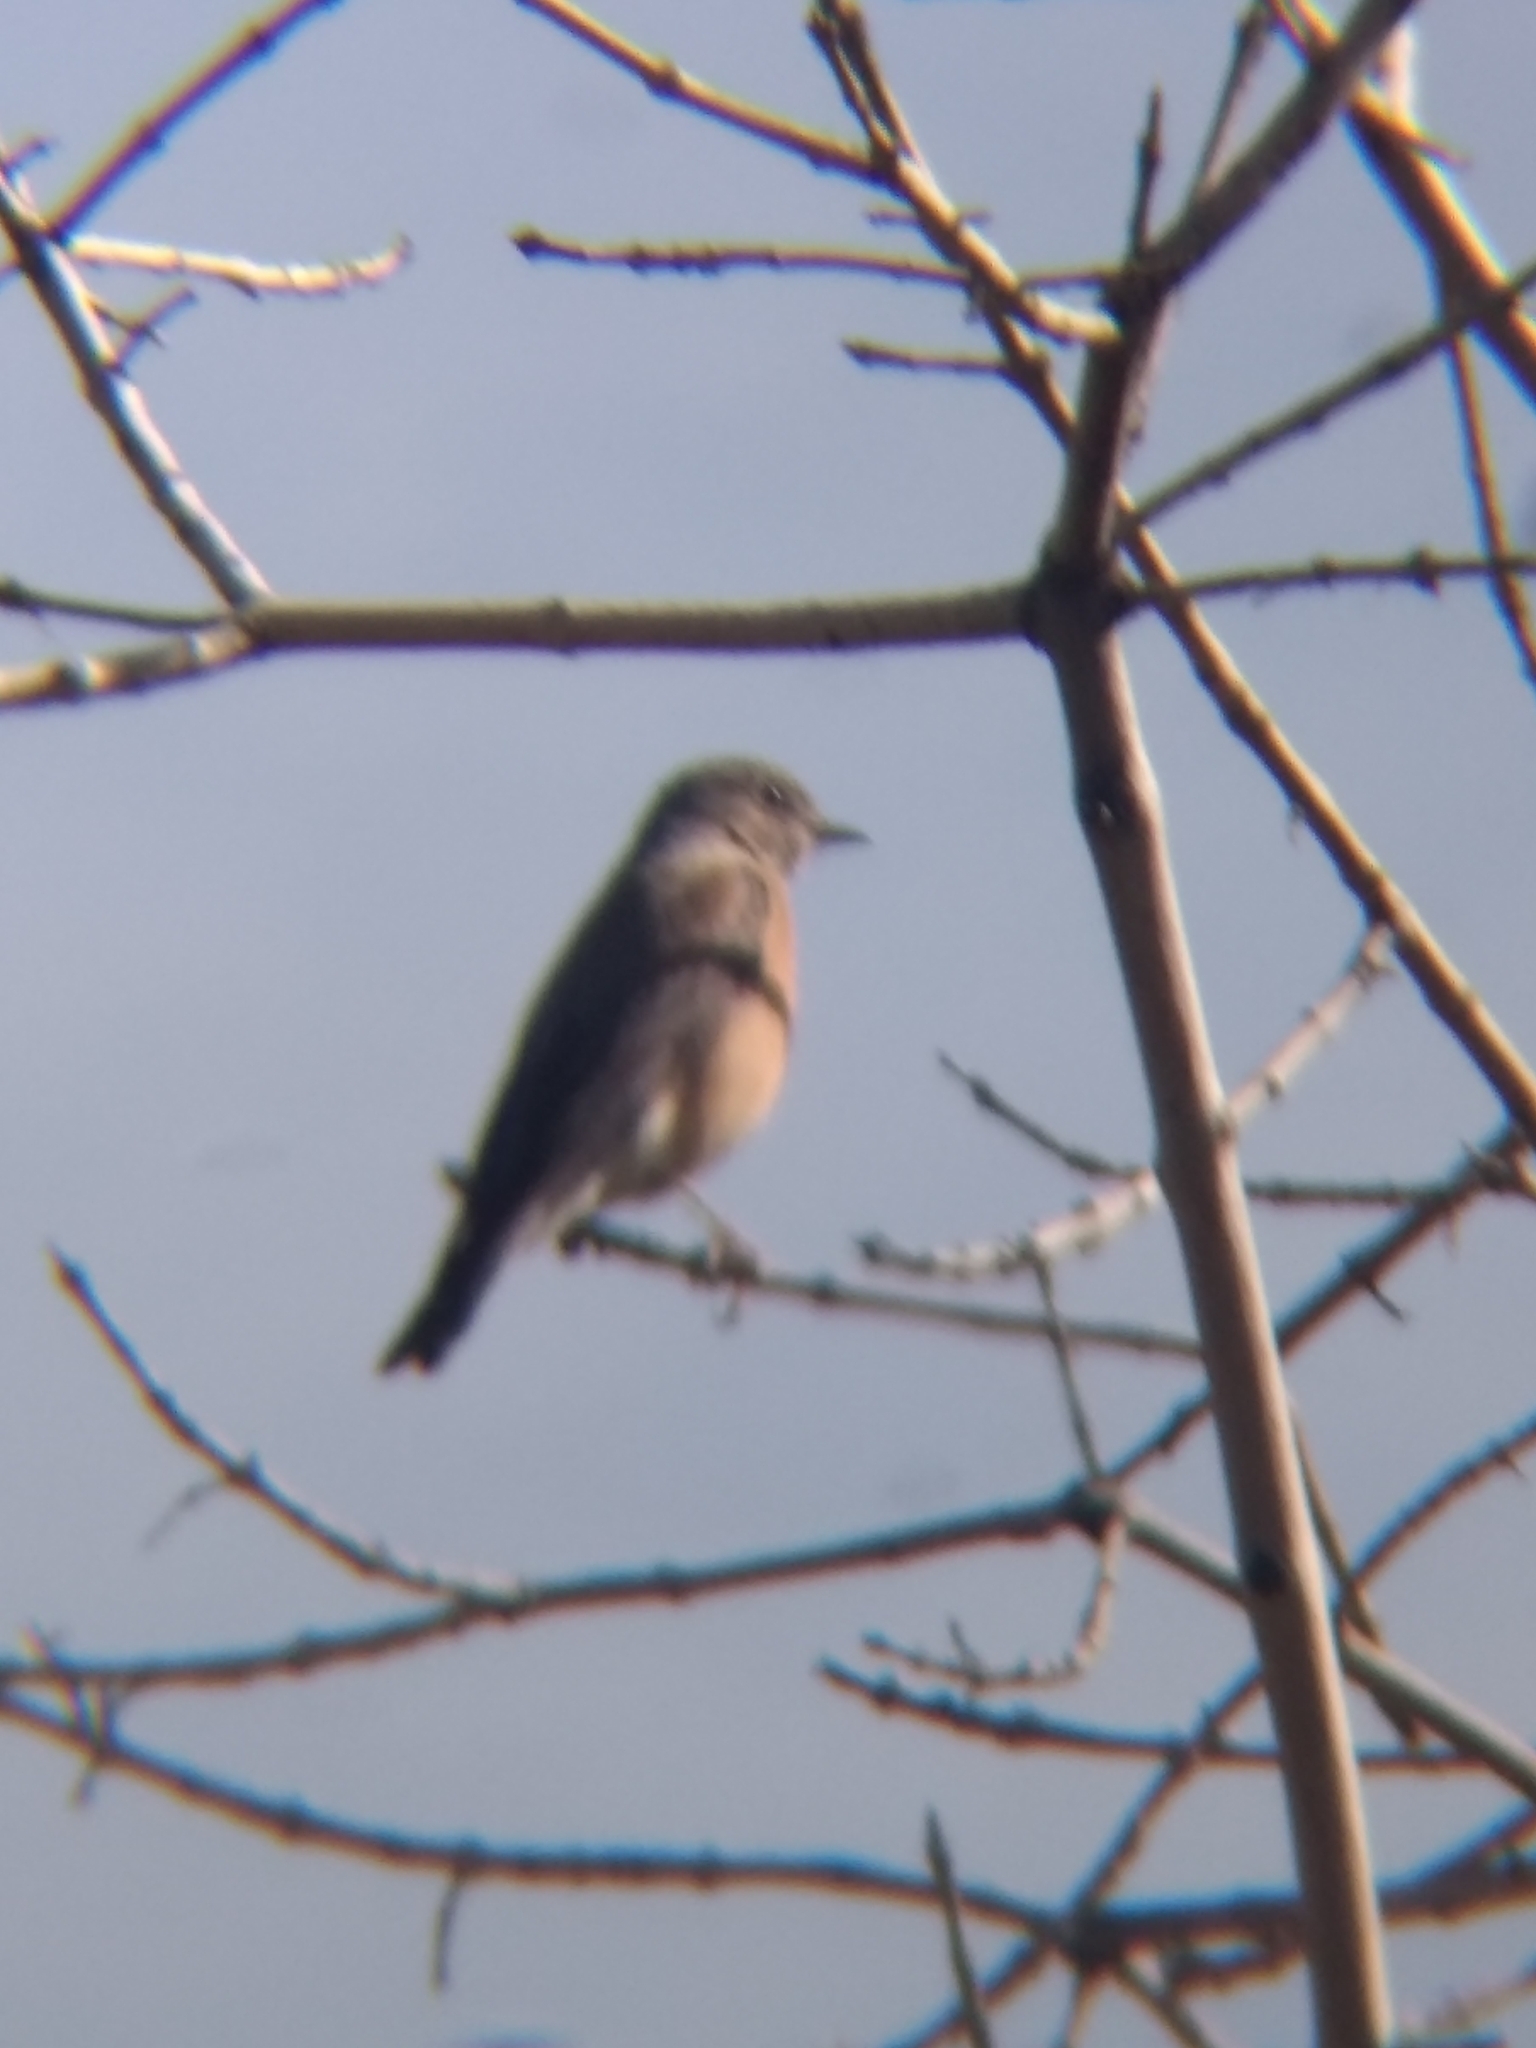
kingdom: Animalia
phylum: Chordata
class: Aves
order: Passeriformes
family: Turdidae
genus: Sialia
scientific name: Sialia mexicana
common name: Western bluebird
